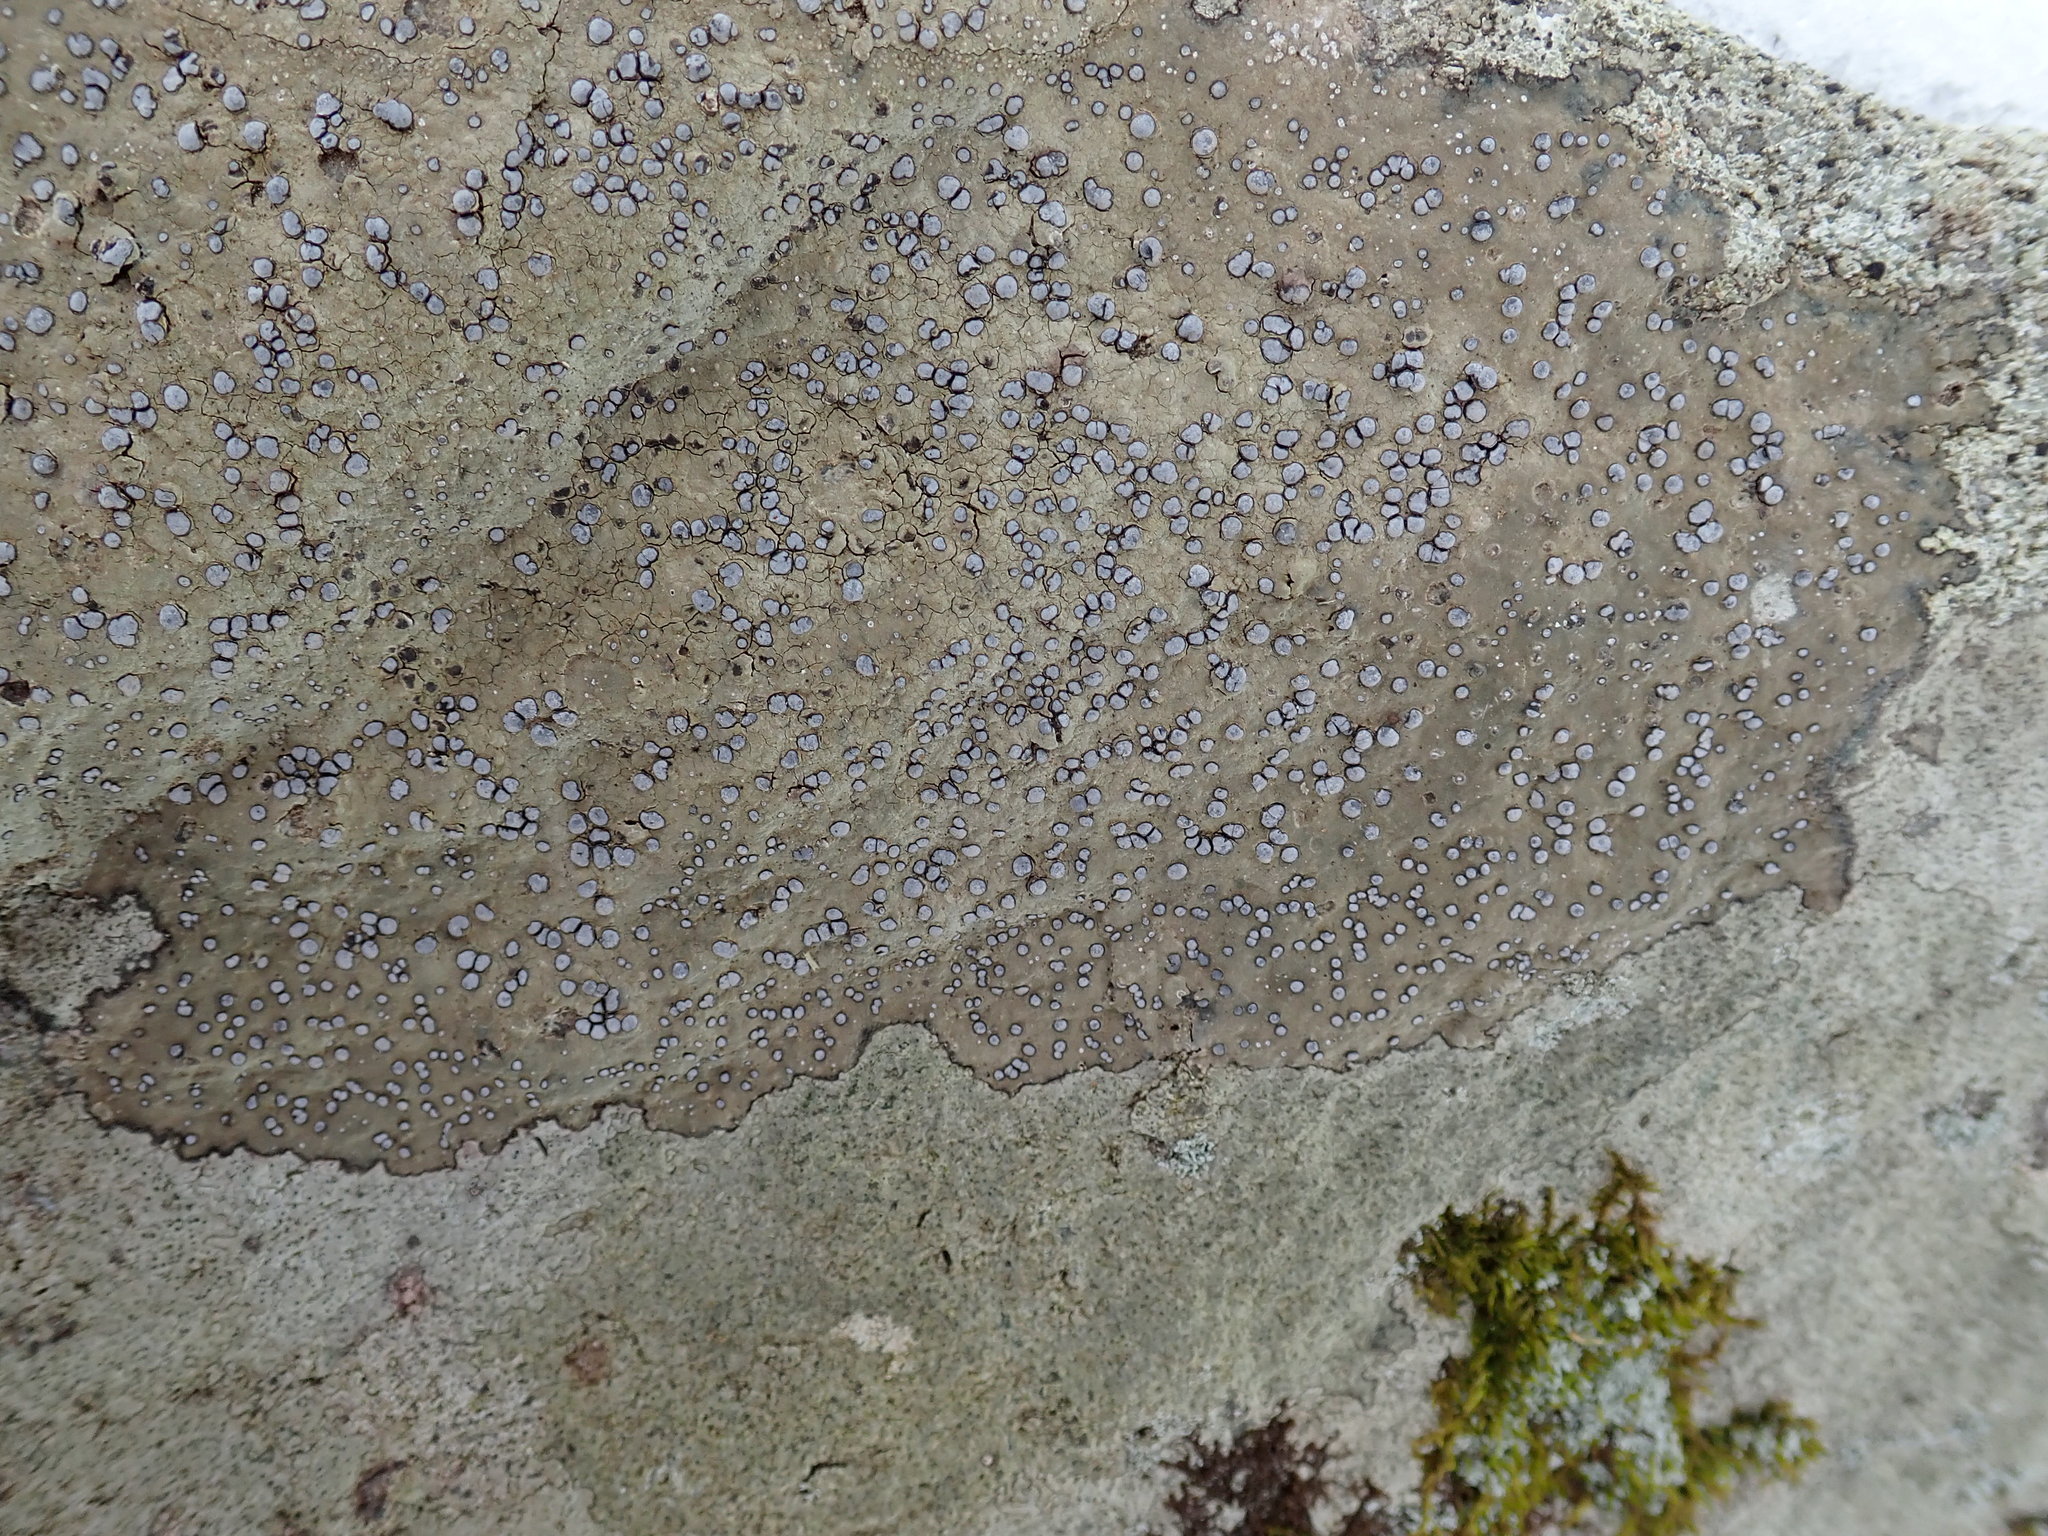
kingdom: Fungi
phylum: Ascomycota
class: Lecanoromycetes
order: Lecideales
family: Lecideaceae
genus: Porpidia
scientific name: Porpidia albocaerulescens
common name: Smokey-eyed boulder lichen
